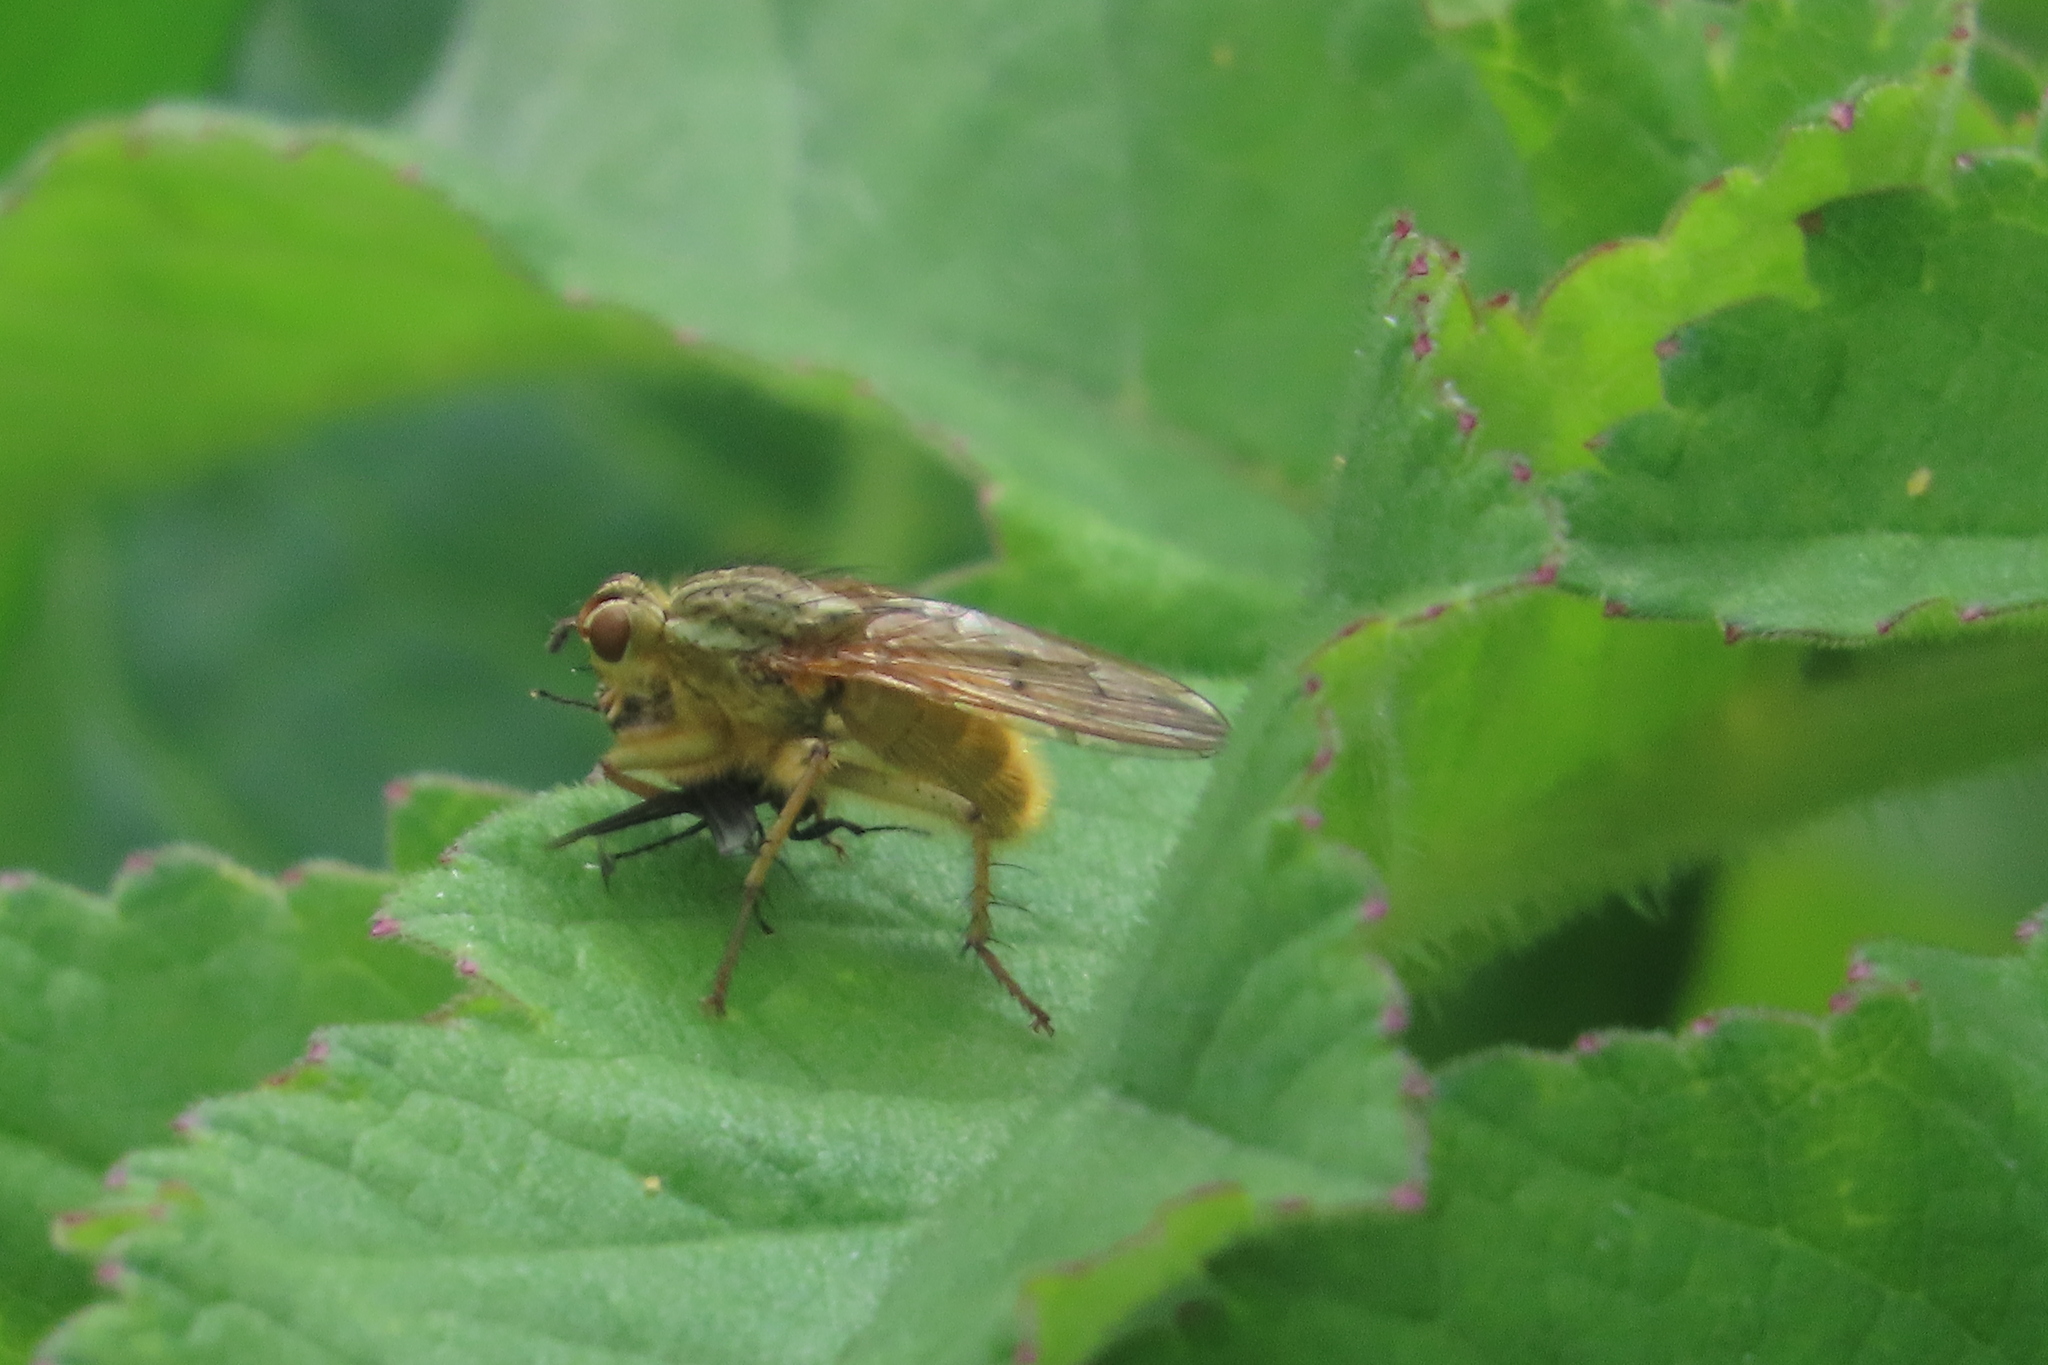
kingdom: Animalia
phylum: Arthropoda
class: Insecta
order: Diptera
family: Scathophagidae
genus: Scathophaga
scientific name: Scathophaga stercoraria
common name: Yellow dung fly
